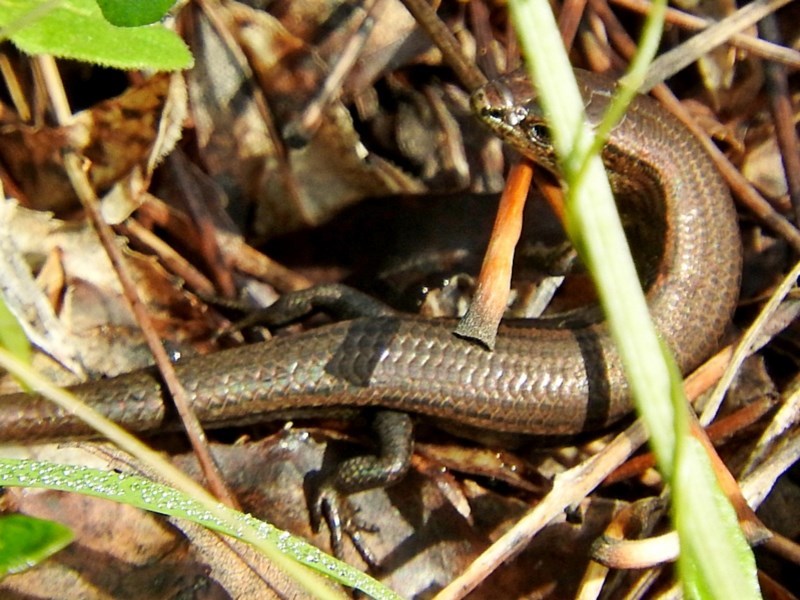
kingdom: Animalia
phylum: Chordata
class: Squamata
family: Scincidae
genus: Lampropholis
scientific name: Lampropholis delicata
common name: Plague skink
